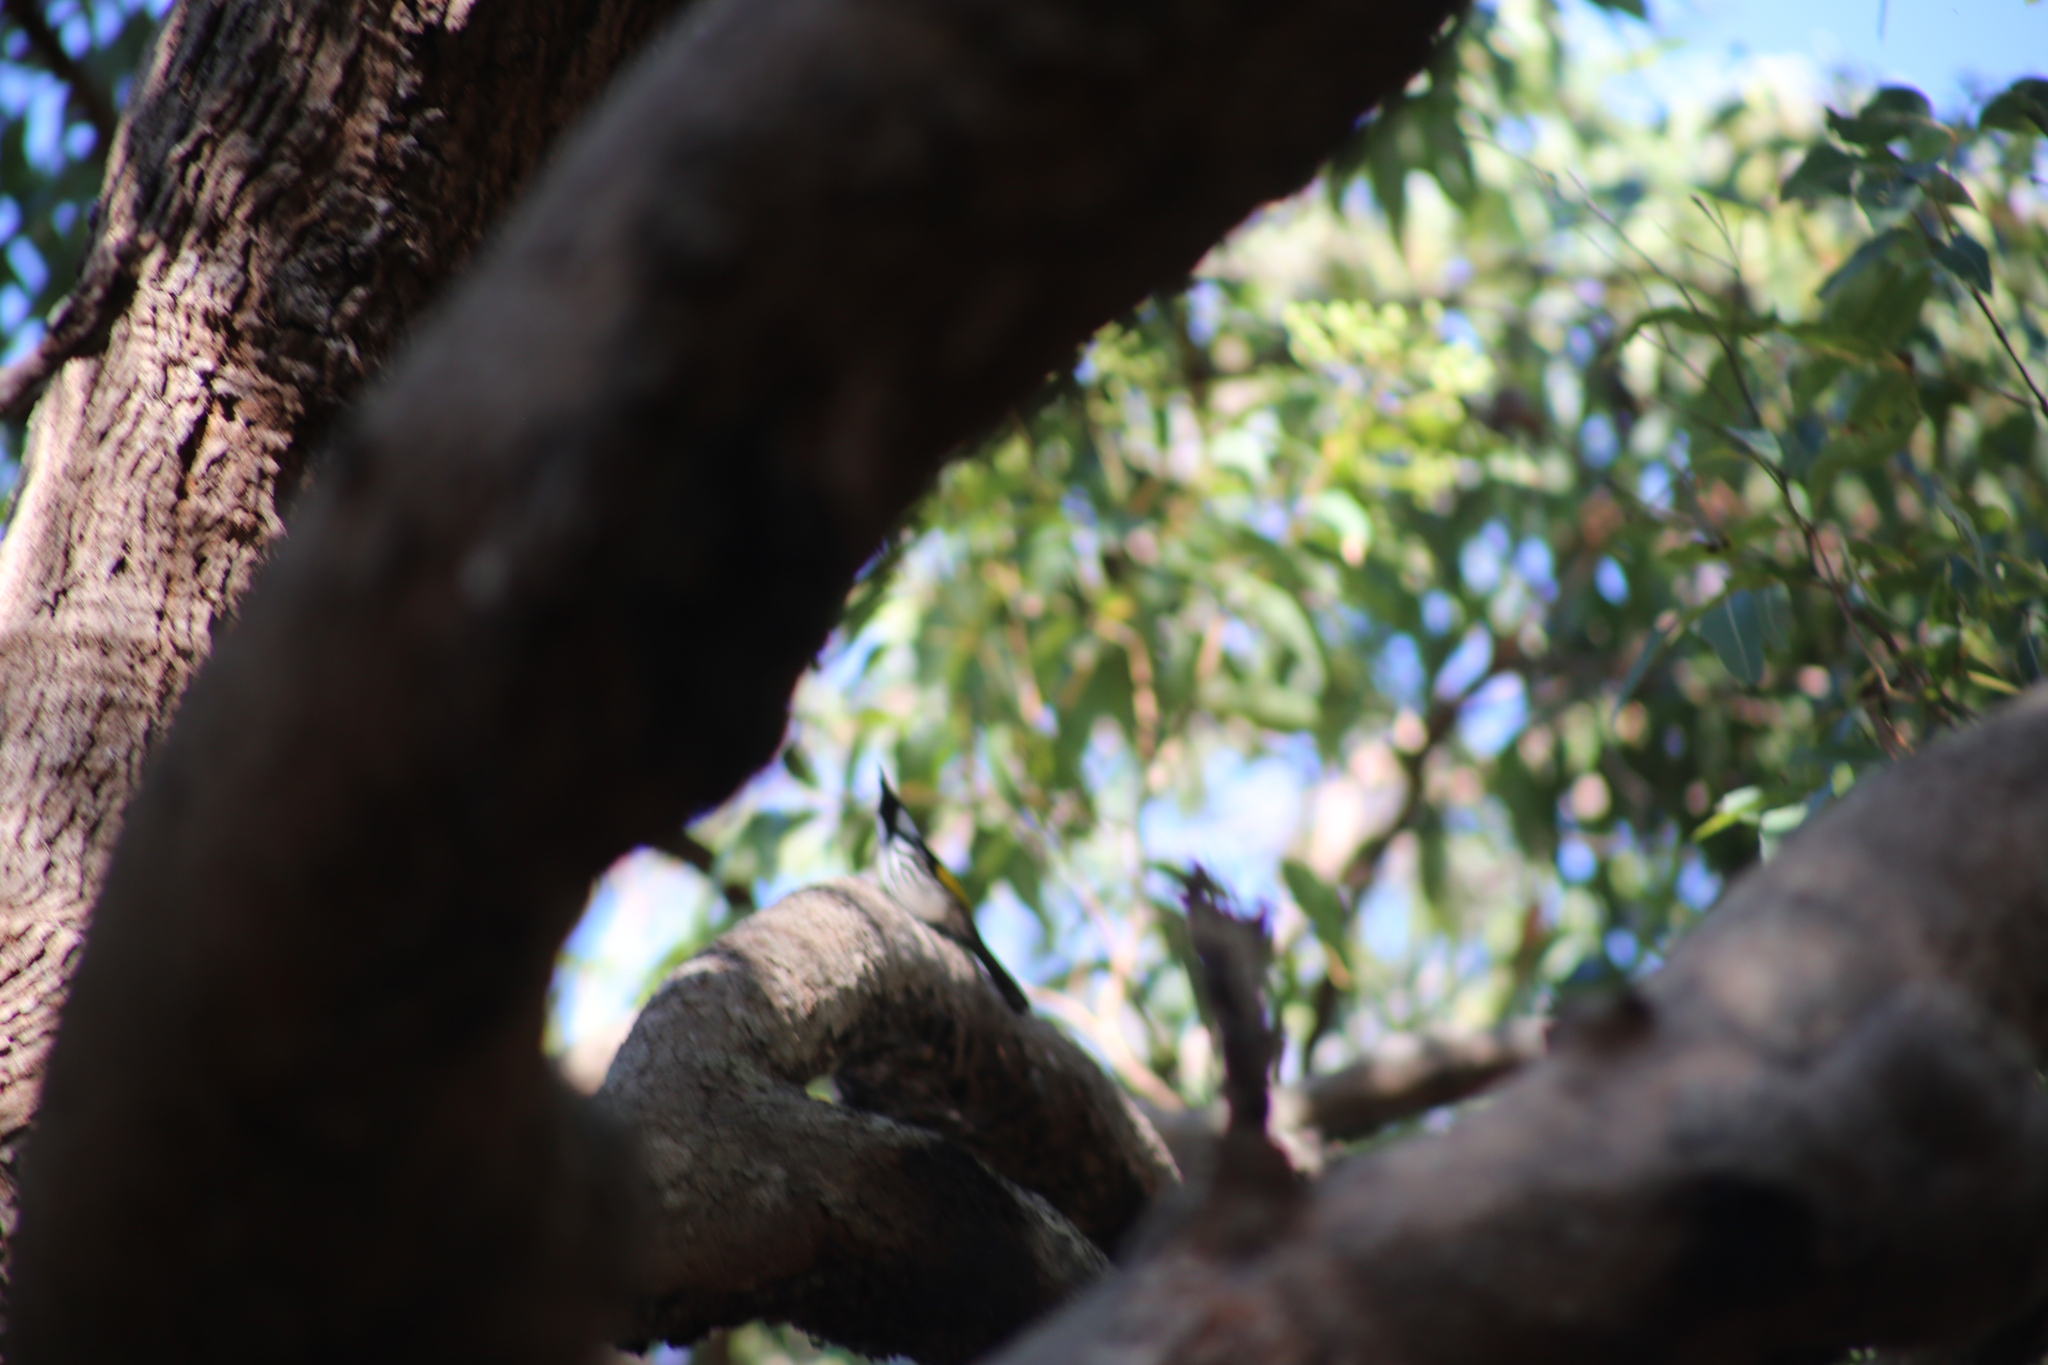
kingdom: Animalia
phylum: Chordata
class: Aves
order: Passeriformes
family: Meliphagidae
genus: Phylidonyris
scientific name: Phylidonyris niger
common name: White-cheeked honeyeater
